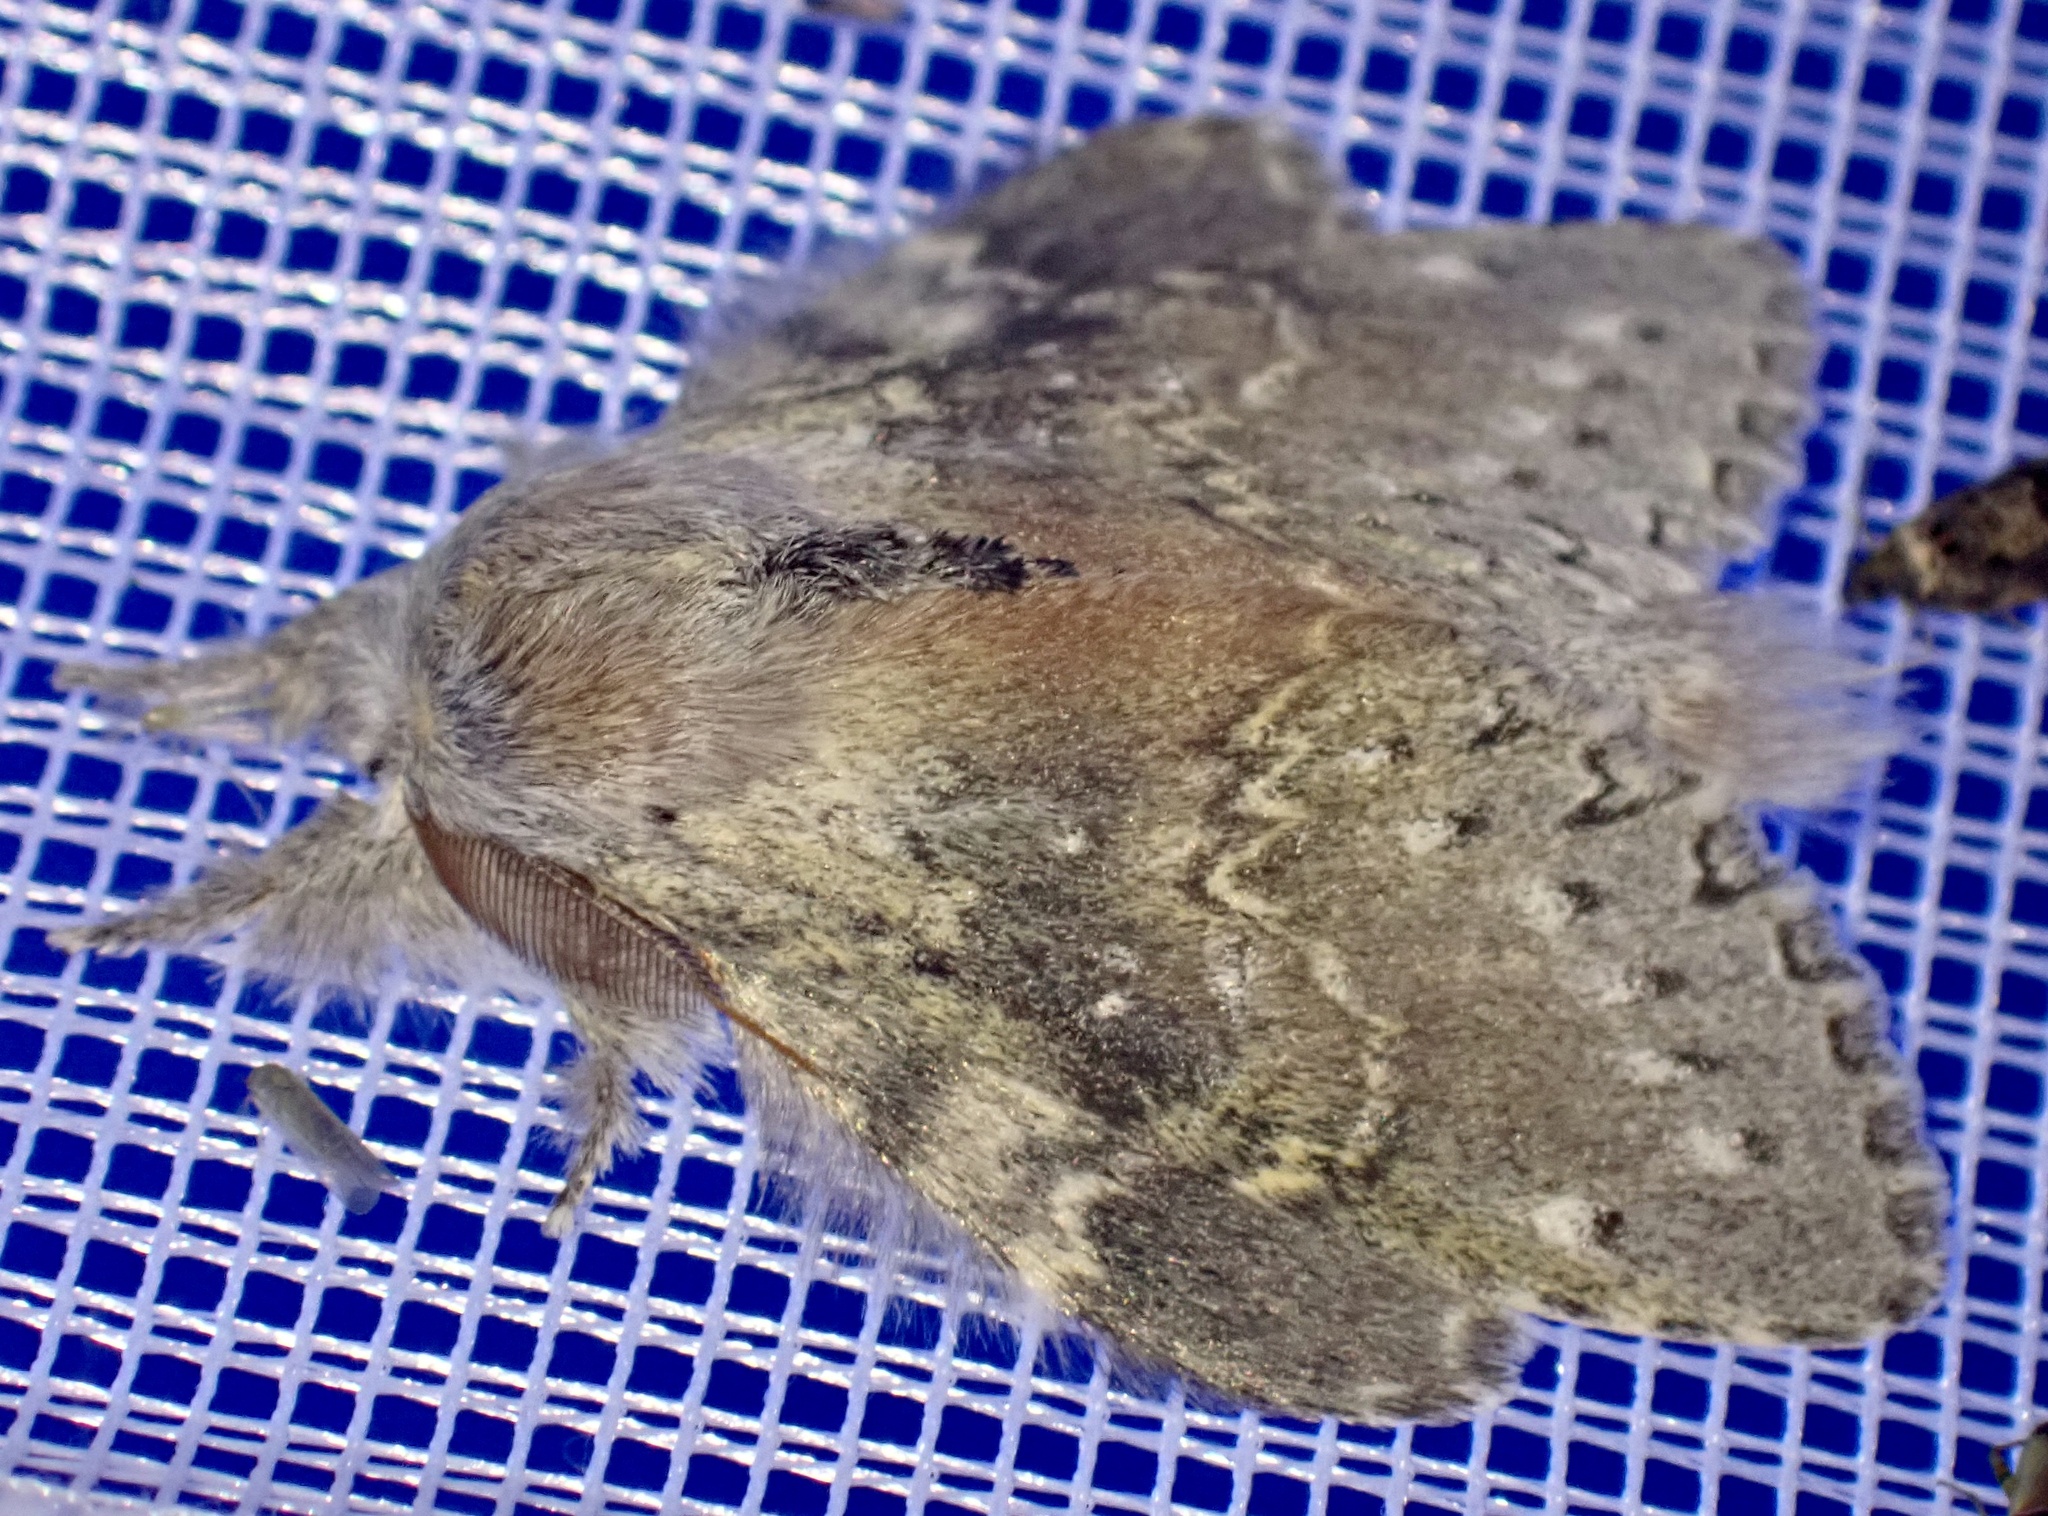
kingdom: Animalia
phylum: Arthropoda
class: Insecta
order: Lepidoptera
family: Notodontidae
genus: Stauropus
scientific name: Stauropus fagi
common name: Lobster moth
